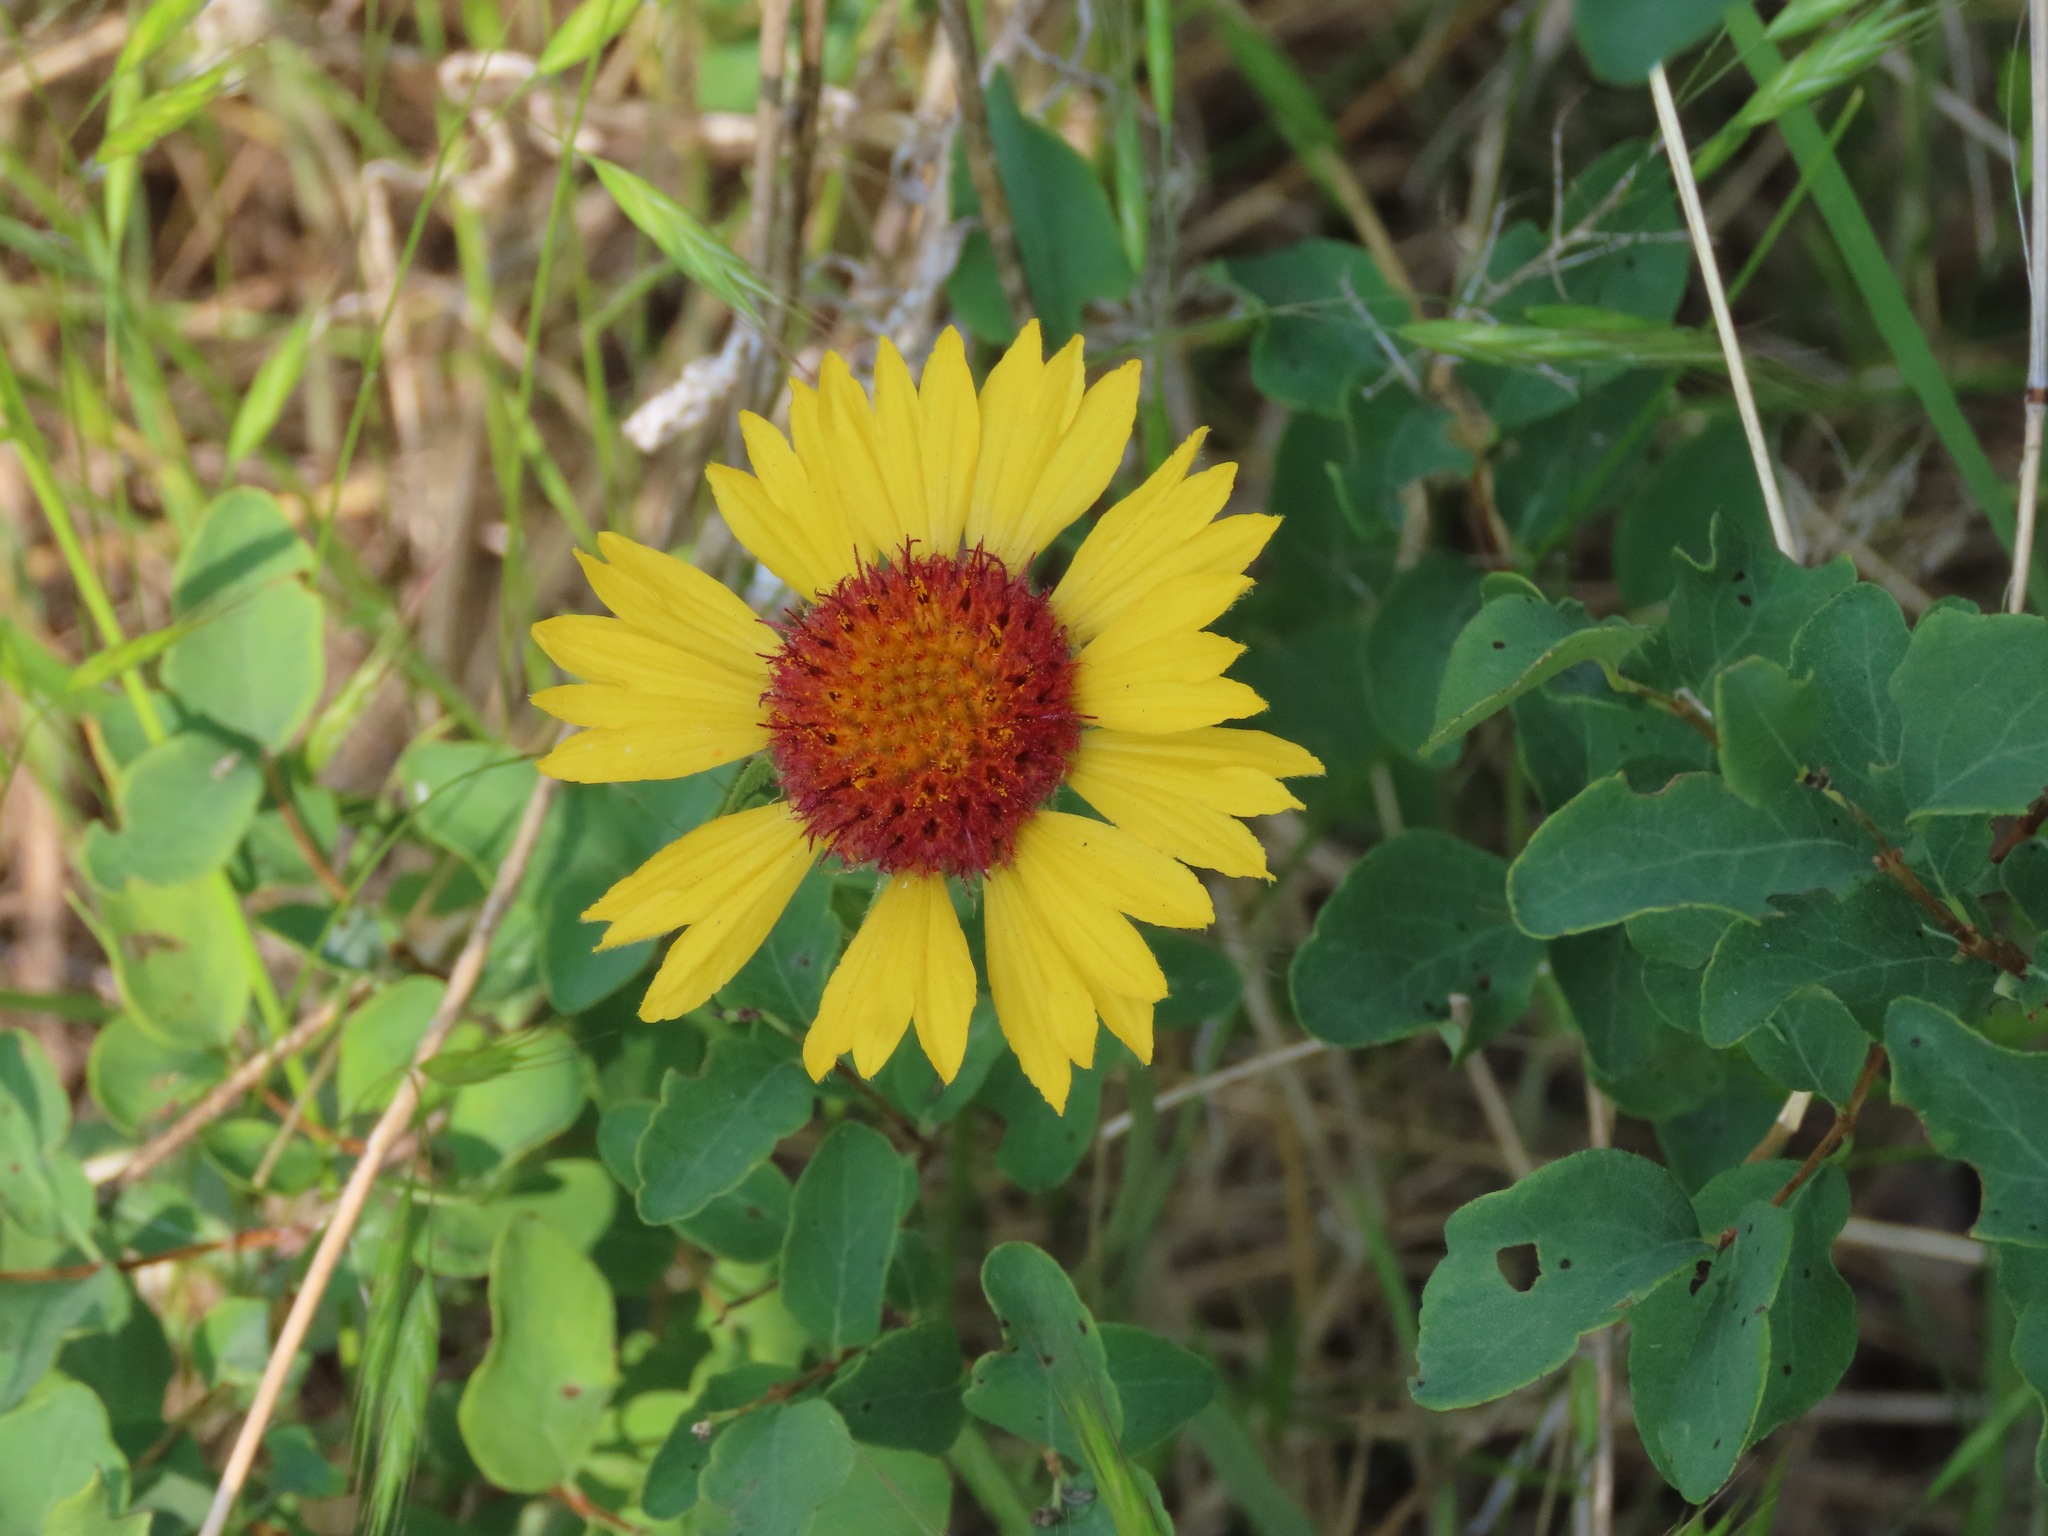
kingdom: Plantae
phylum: Tracheophyta
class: Magnoliopsida
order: Asterales
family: Asteraceae
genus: Gaillardia
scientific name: Gaillardia aristata
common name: Blanket-flower
